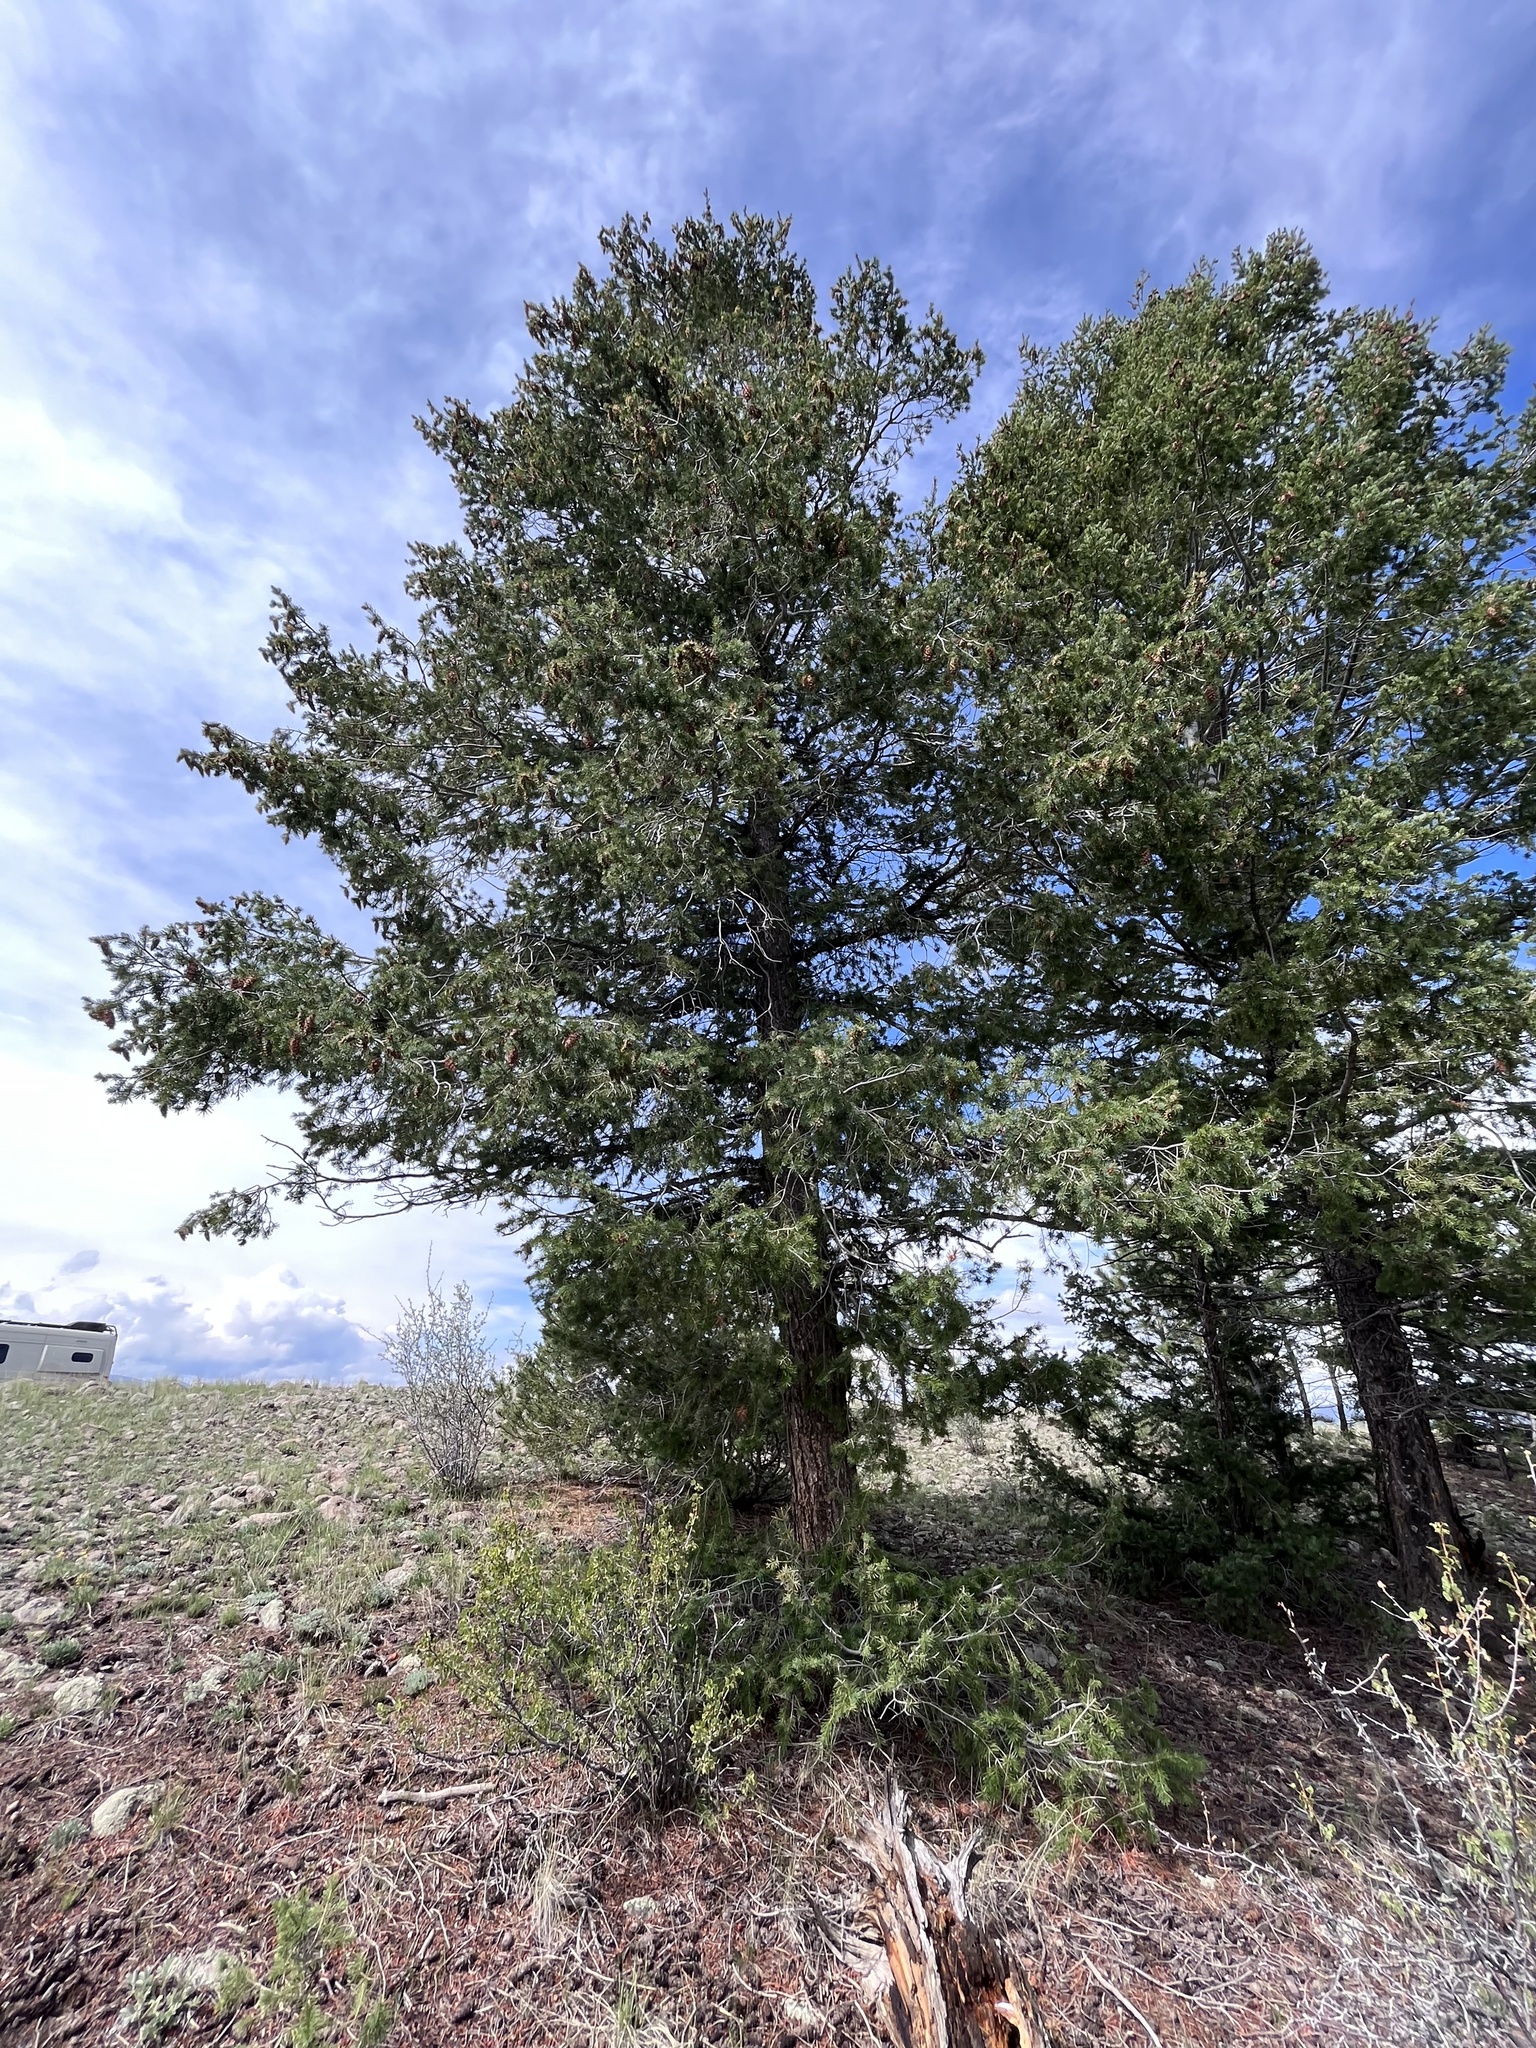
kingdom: Plantae
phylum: Tracheophyta
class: Pinopsida
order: Pinales
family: Pinaceae
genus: Pseudotsuga
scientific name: Pseudotsuga menziesii
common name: Douglas fir
